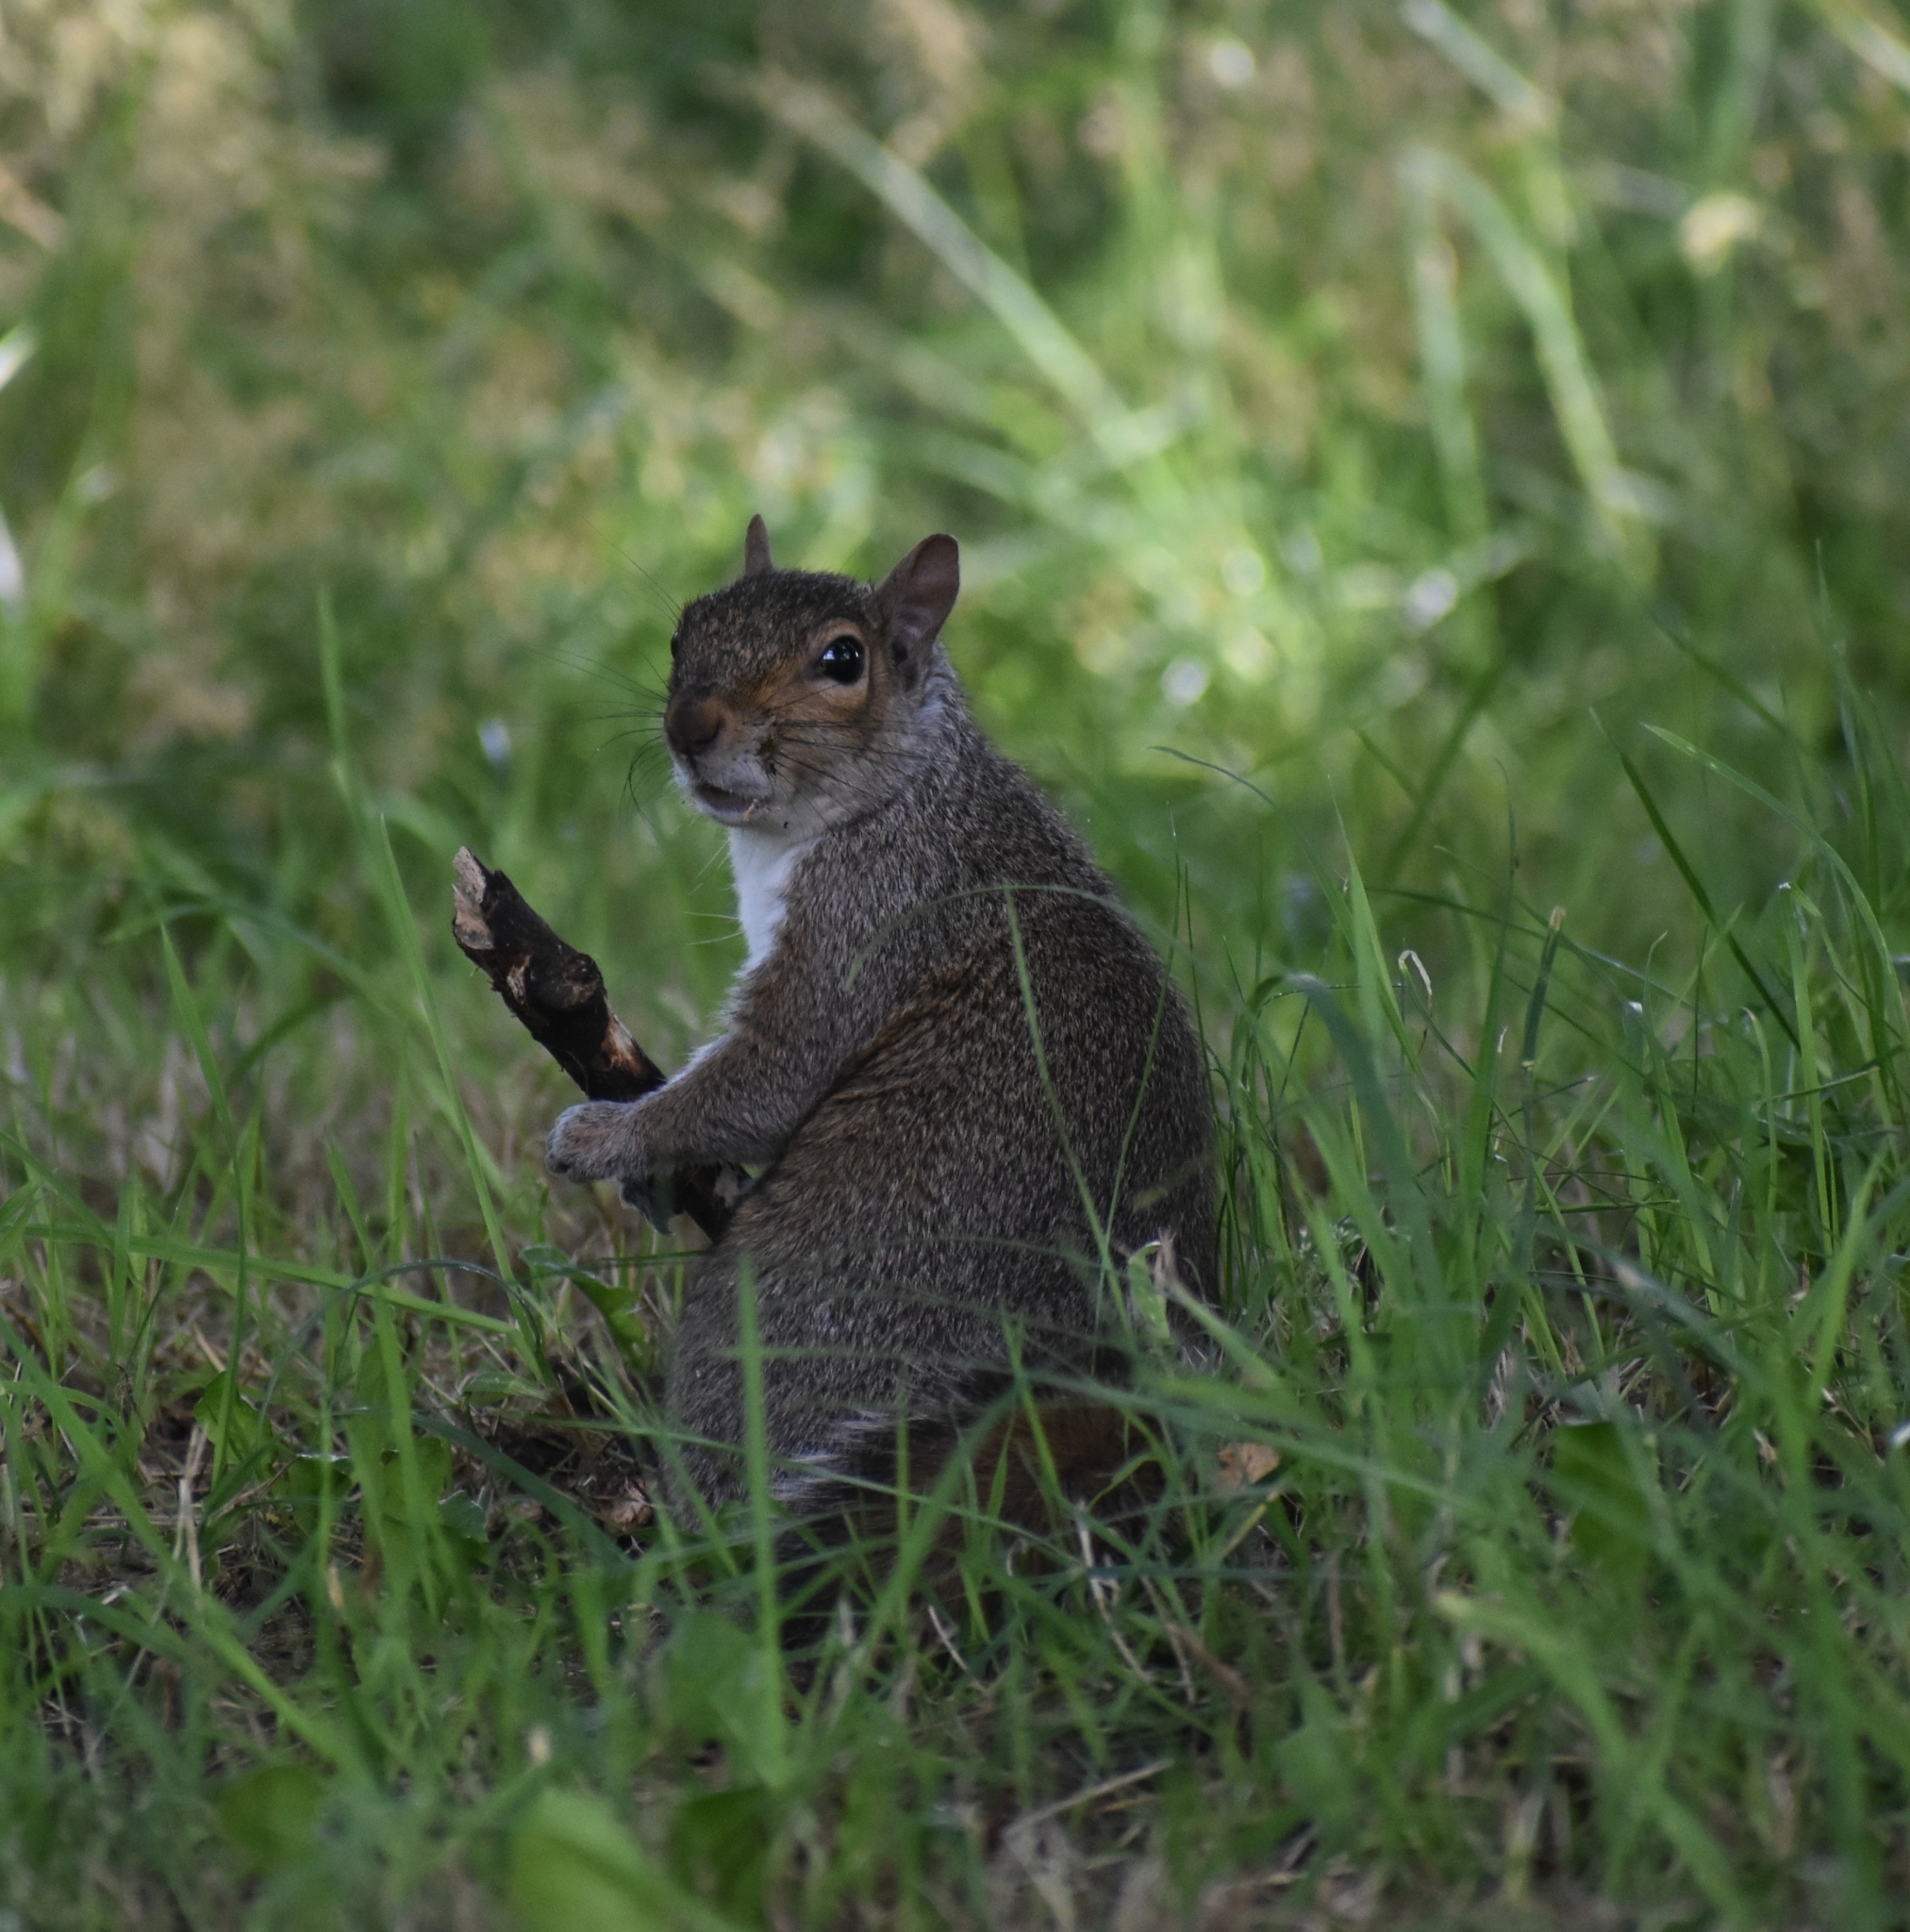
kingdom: Animalia
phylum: Chordata
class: Mammalia
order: Rodentia
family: Sciuridae
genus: Sciurus
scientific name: Sciurus carolinensis
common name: Eastern gray squirrel
